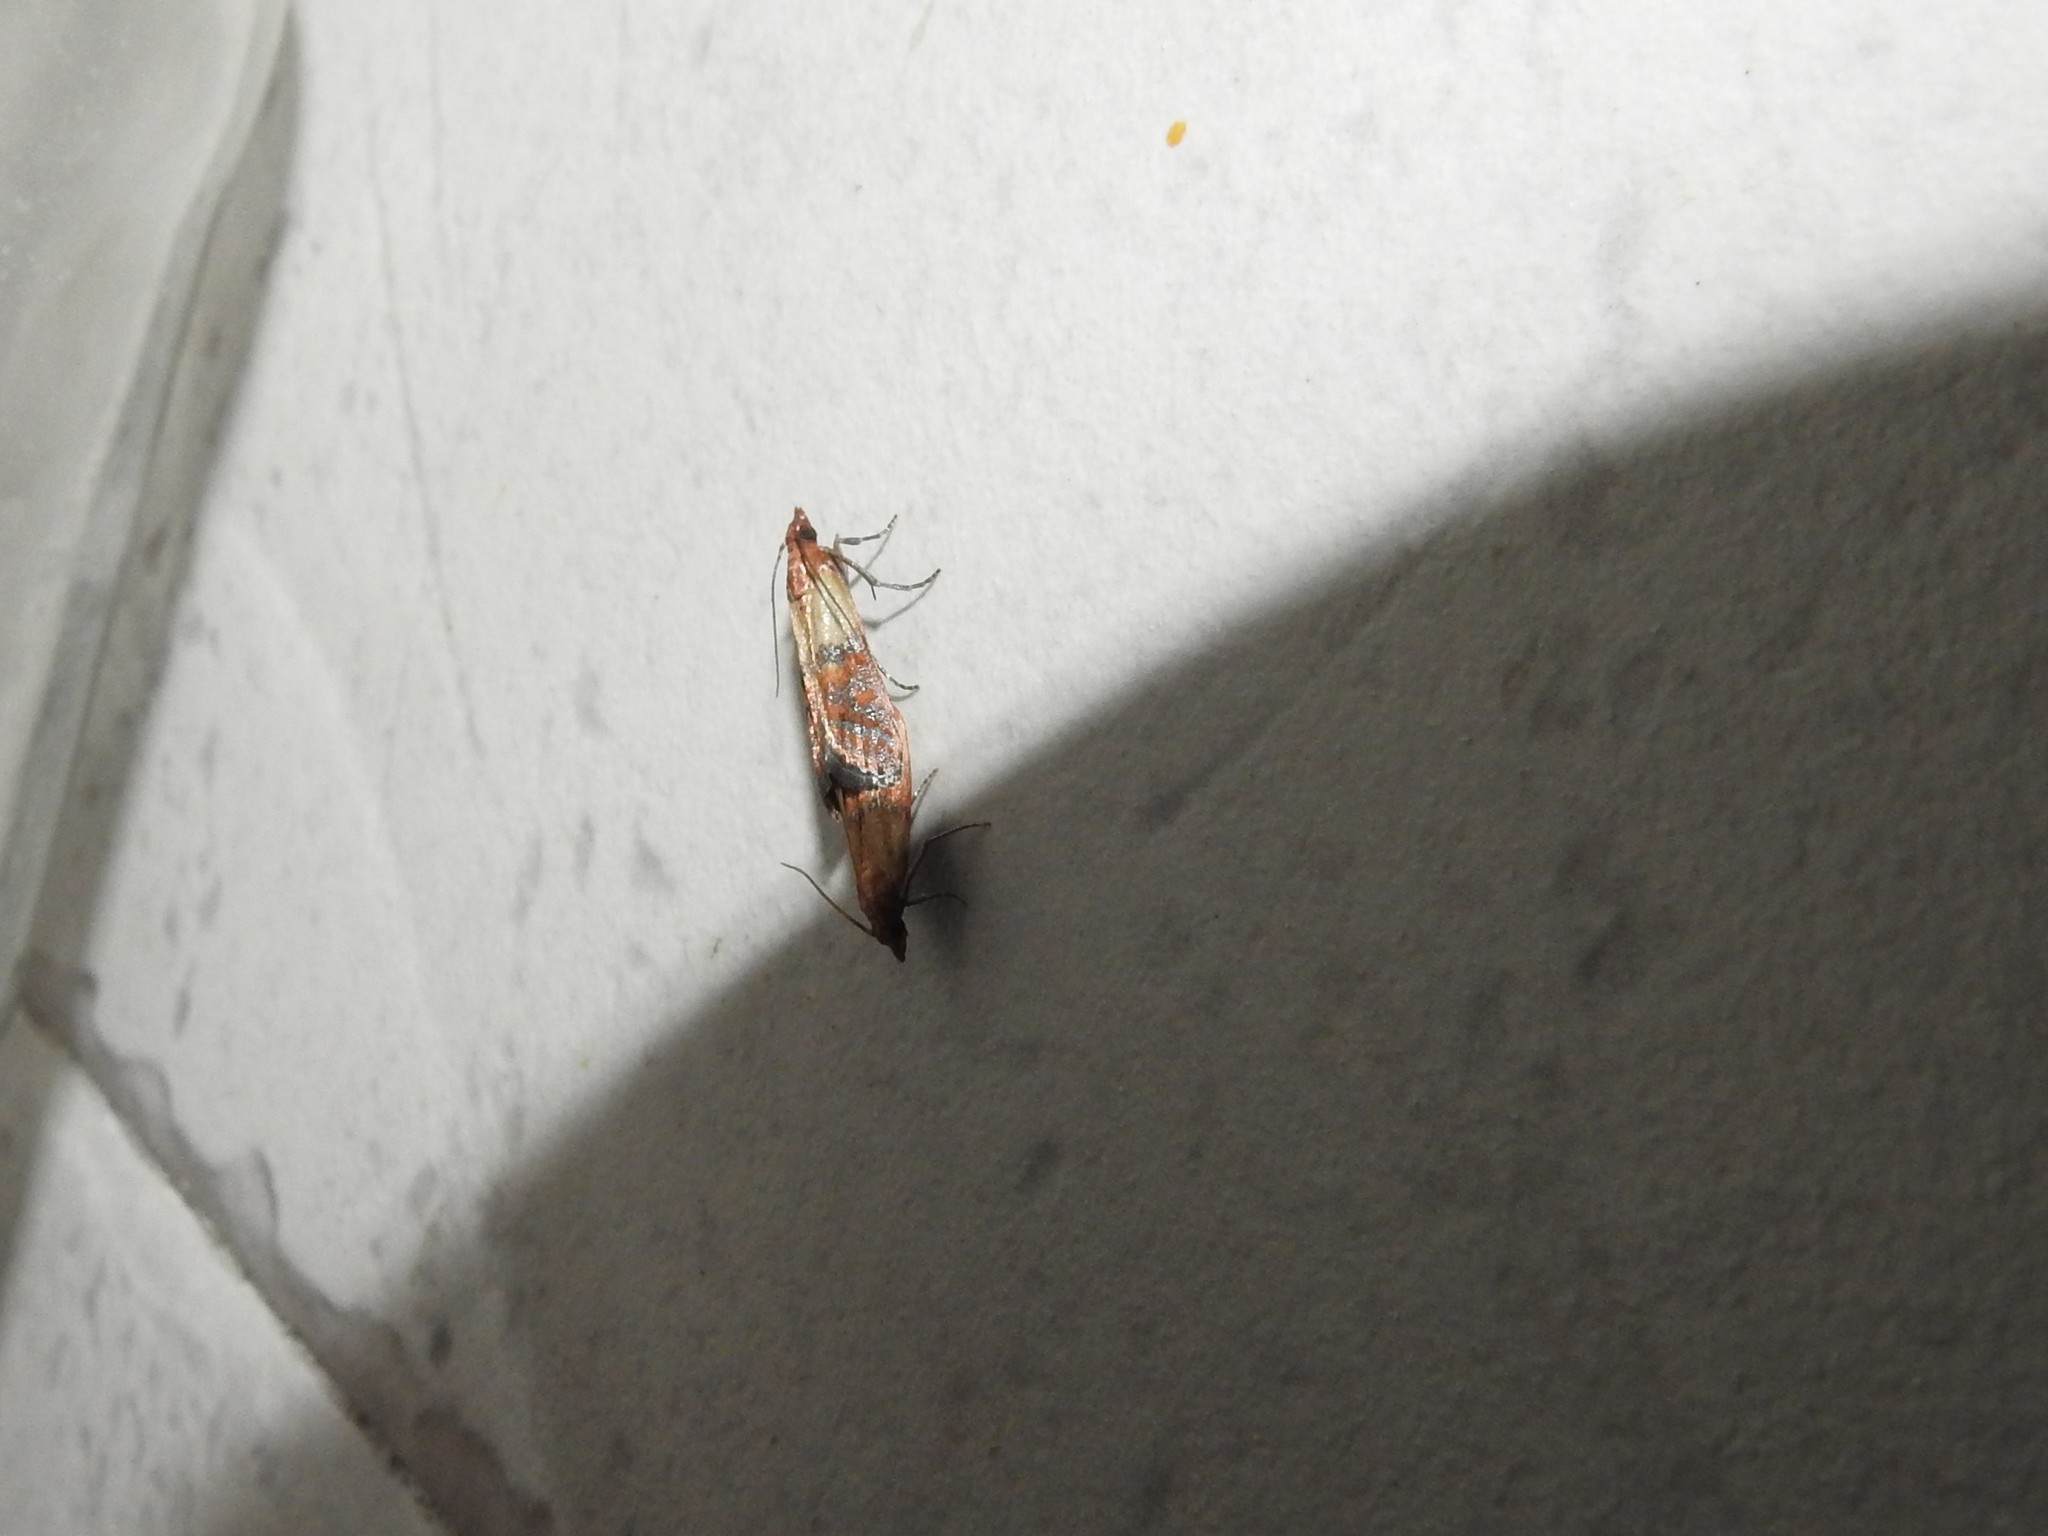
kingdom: Animalia
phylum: Arthropoda
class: Insecta
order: Lepidoptera
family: Pyralidae
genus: Plodia
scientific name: Plodia interpunctella
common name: Indian meal moth
